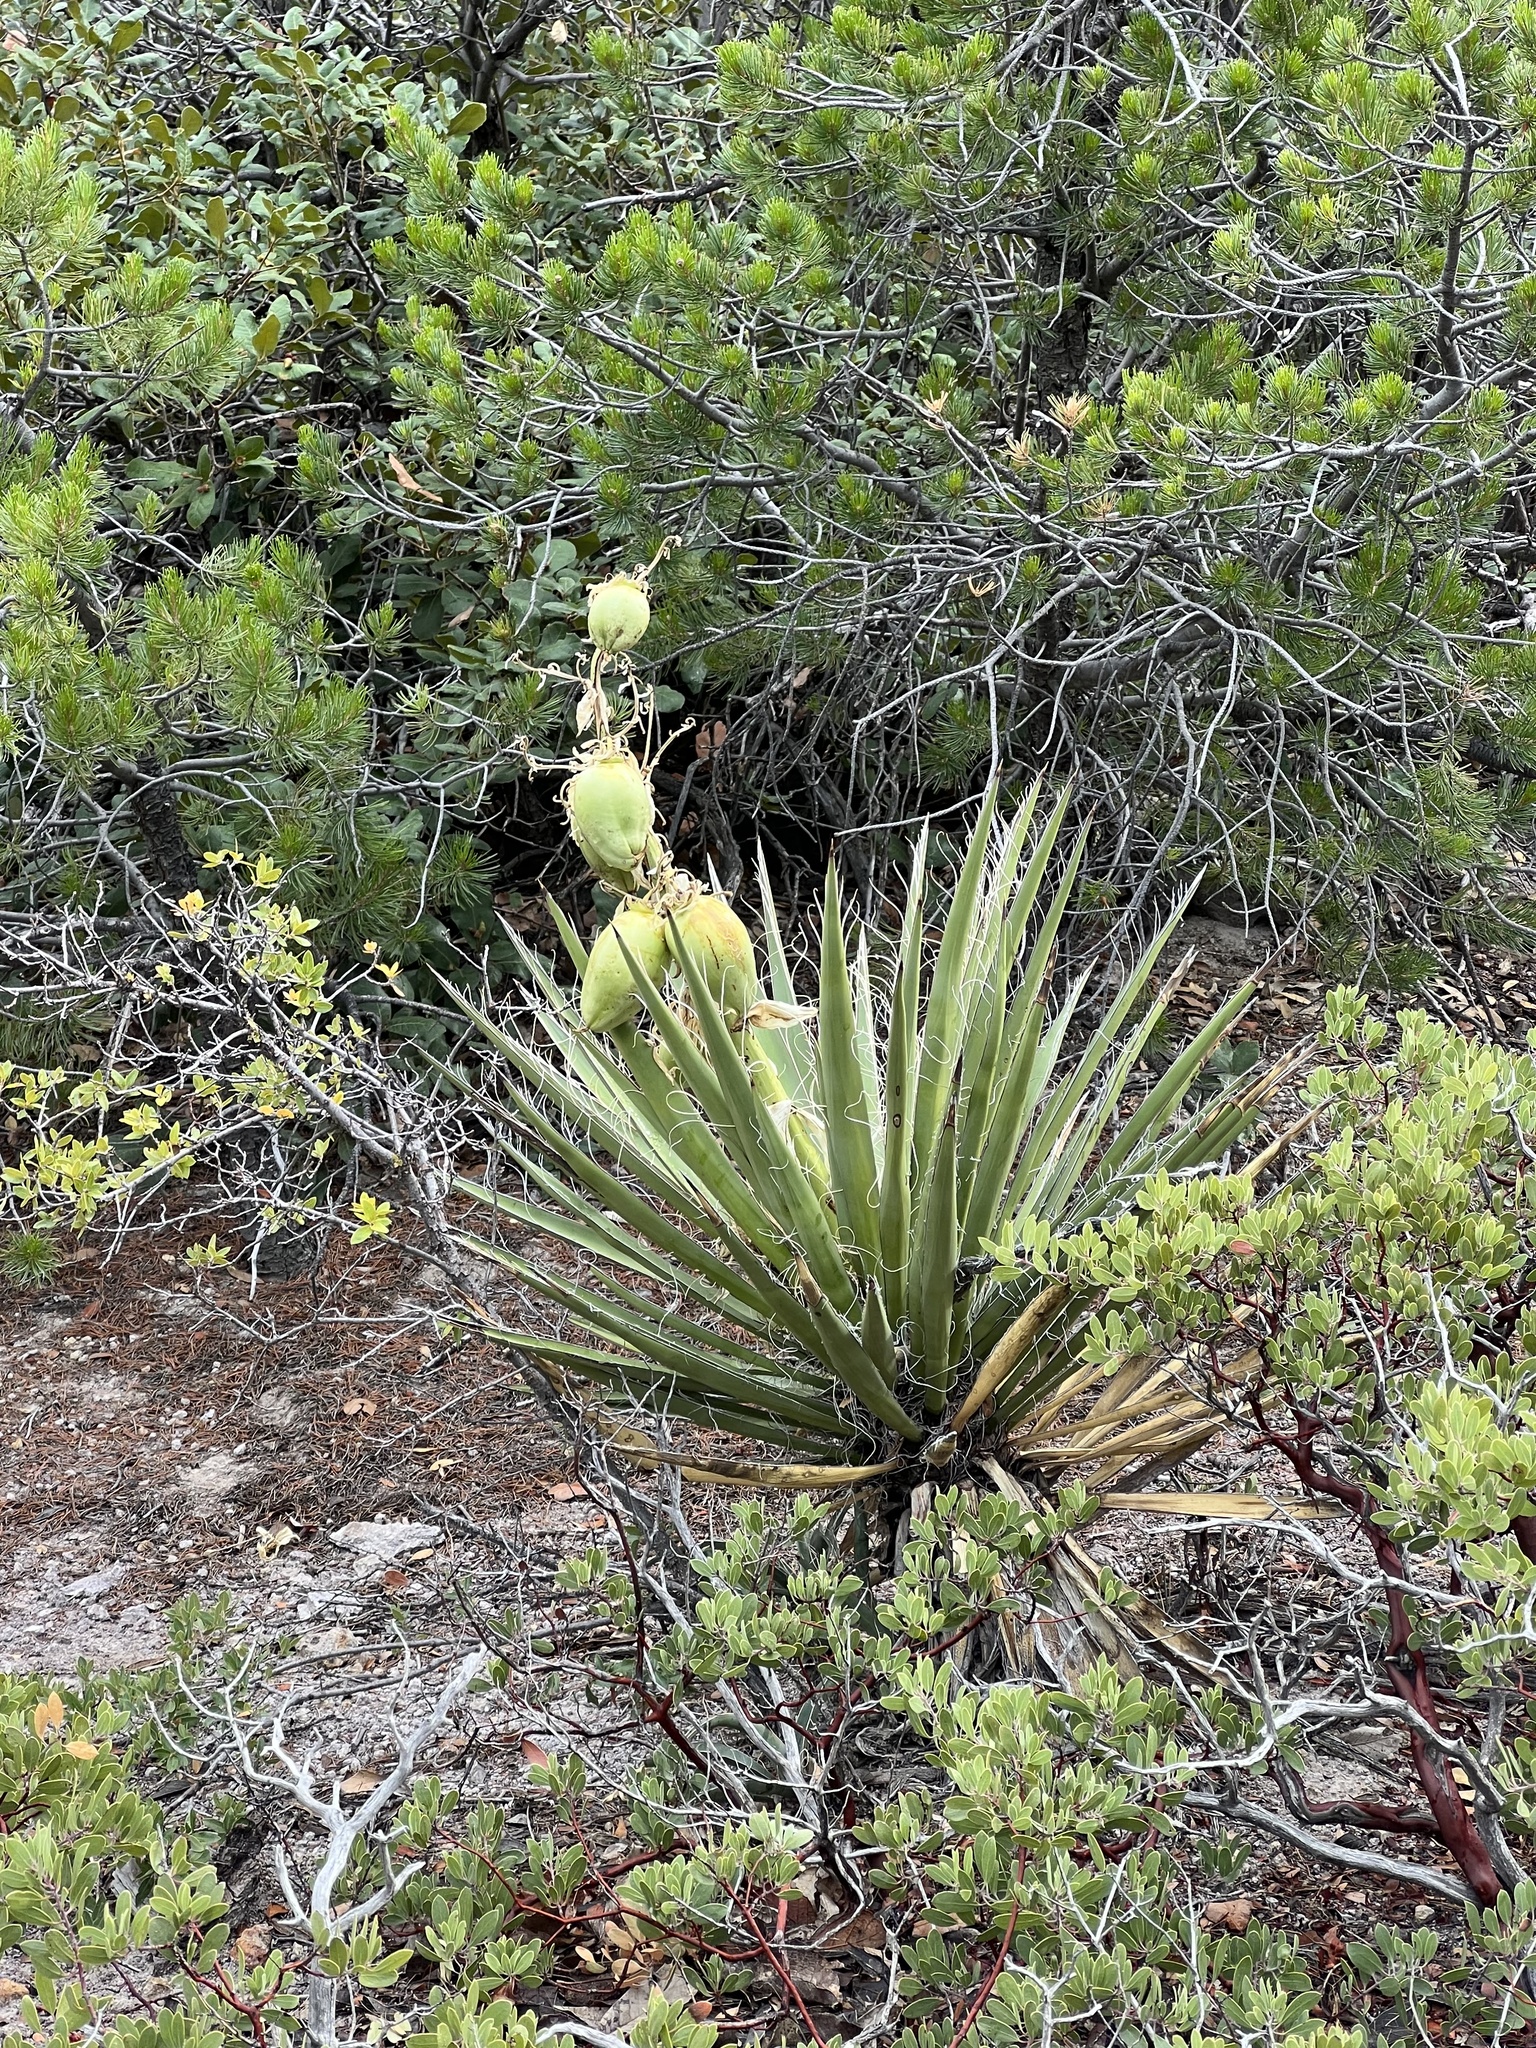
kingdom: Plantae
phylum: Tracheophyta
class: Liliopsida
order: Asparagales
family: Asparagaceae
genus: Yucca
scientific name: Yucca baccata
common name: Banana yucca
